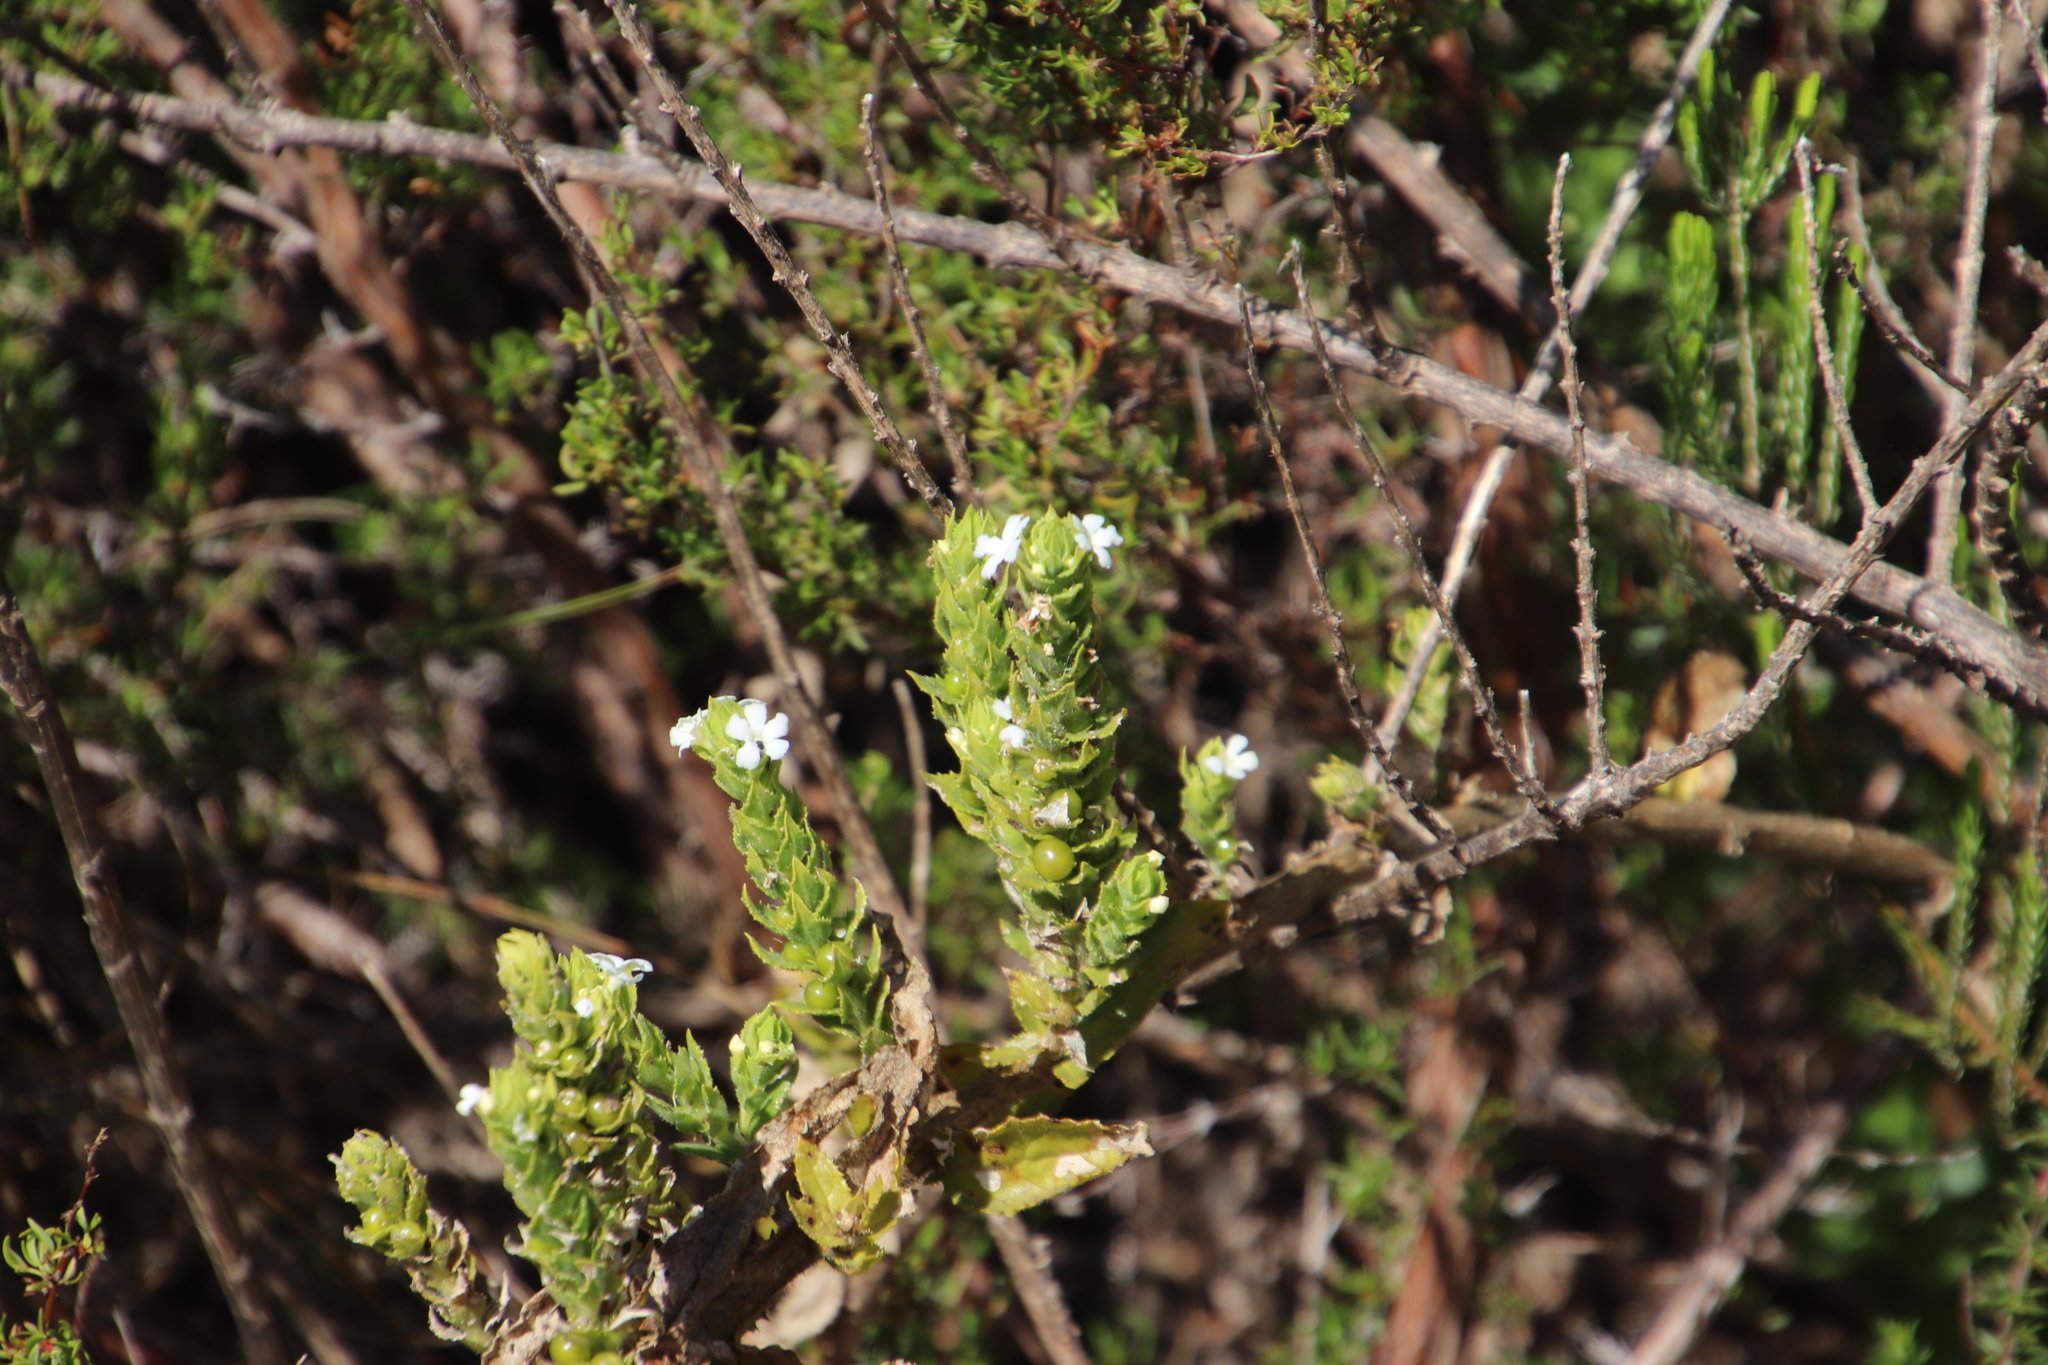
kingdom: Plantae
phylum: Tracheophyta
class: Magnoliopsida
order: Lamiales
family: Scrophulariaceae
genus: Oftia
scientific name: Oftia africana
